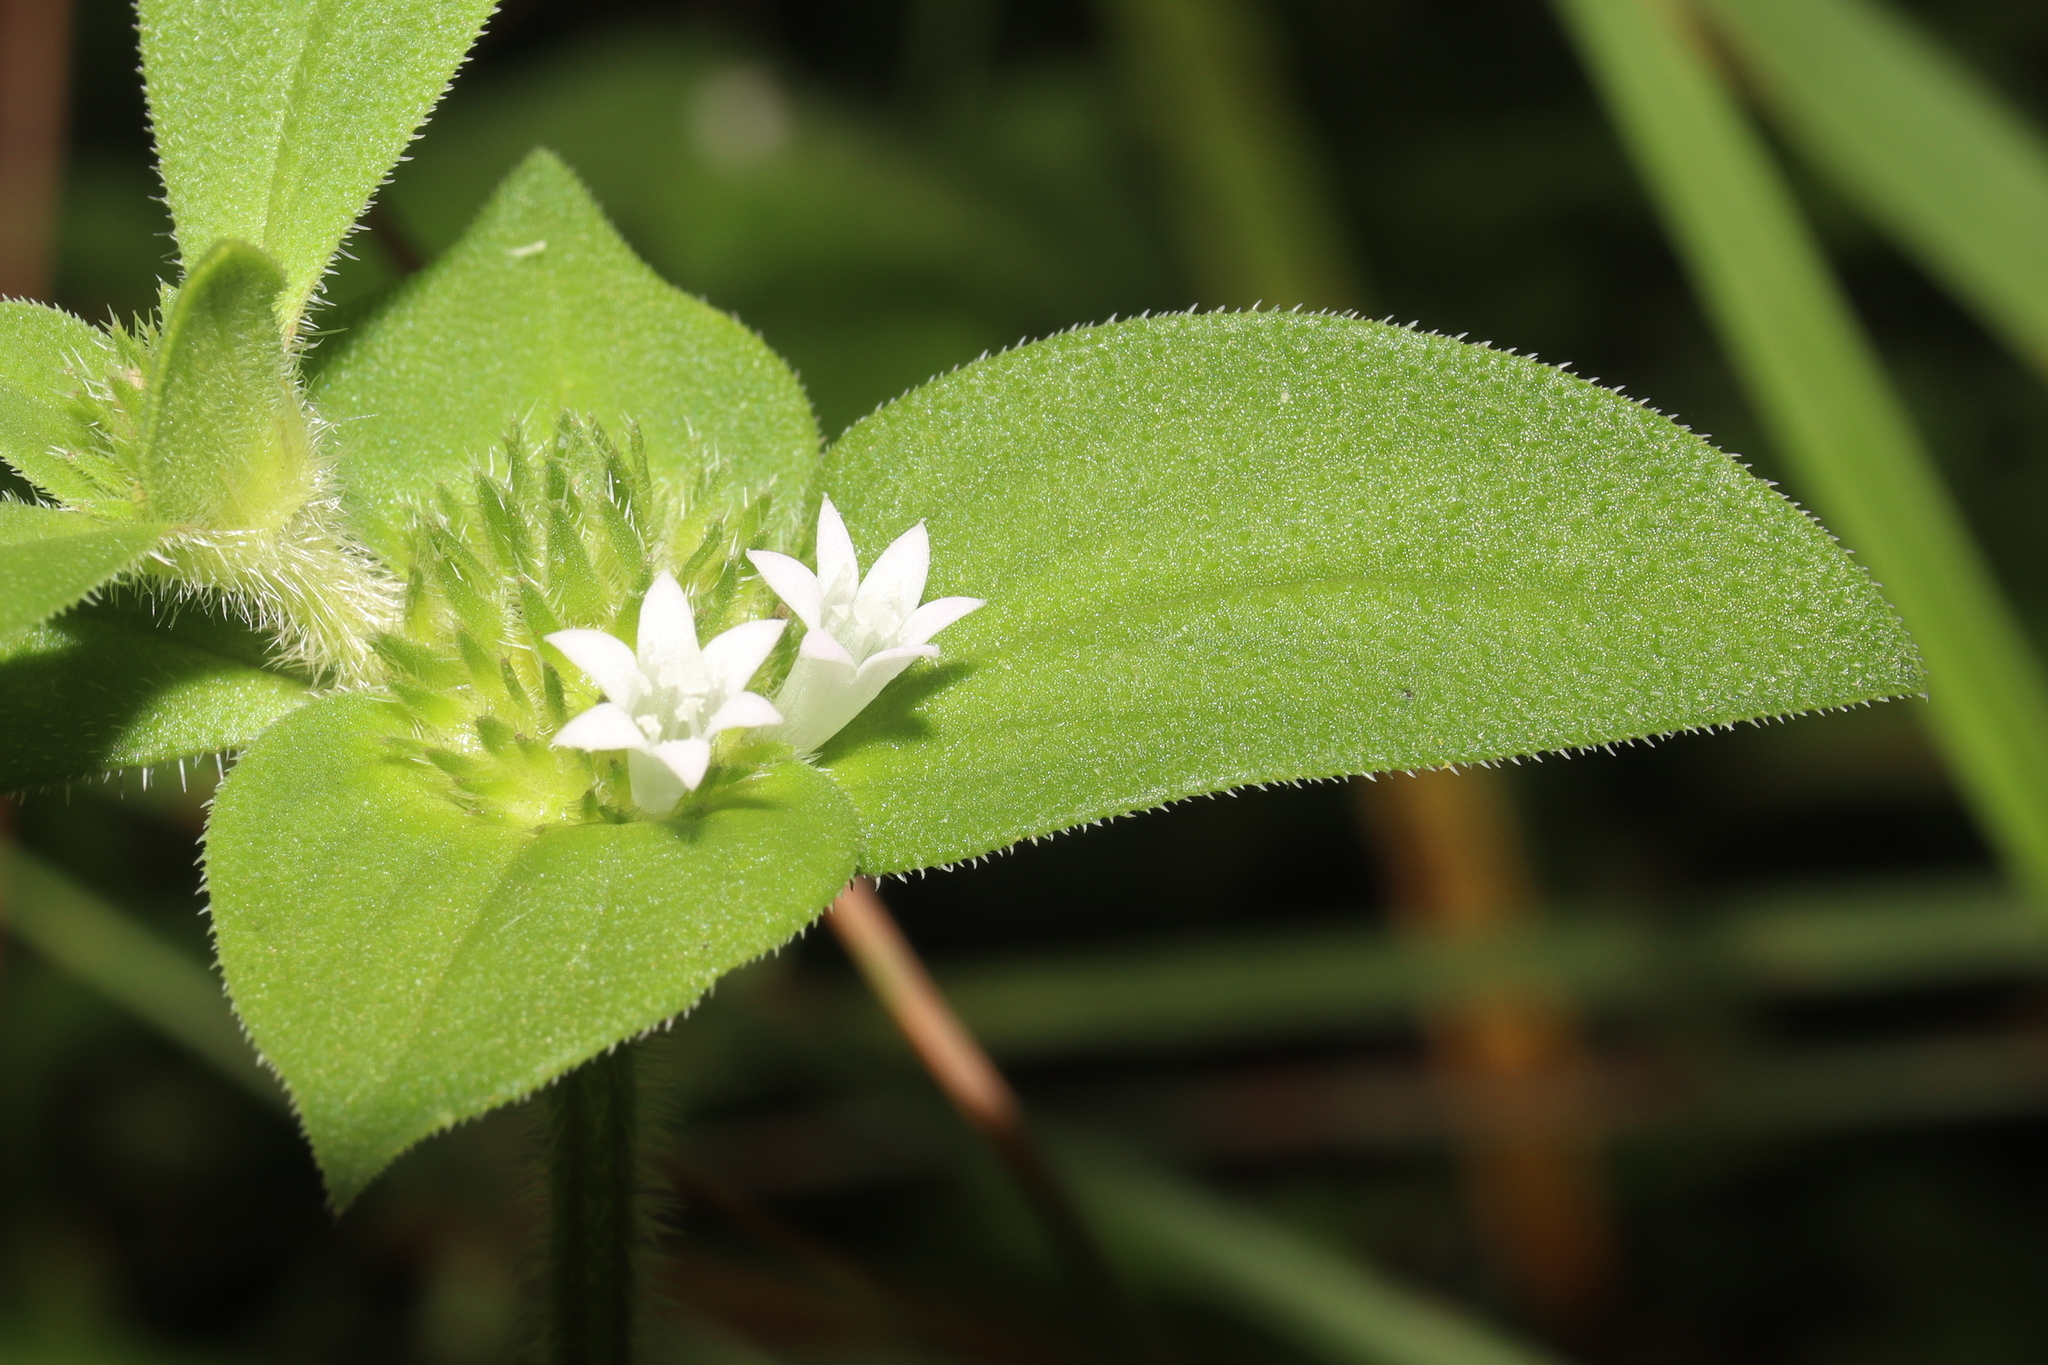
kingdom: Plantae
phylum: Tracheophyta
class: Magnoliopsida
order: Gentianales
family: Rubiaceae
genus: Richardia
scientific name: Richardia scabra
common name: Rough mexican clover
